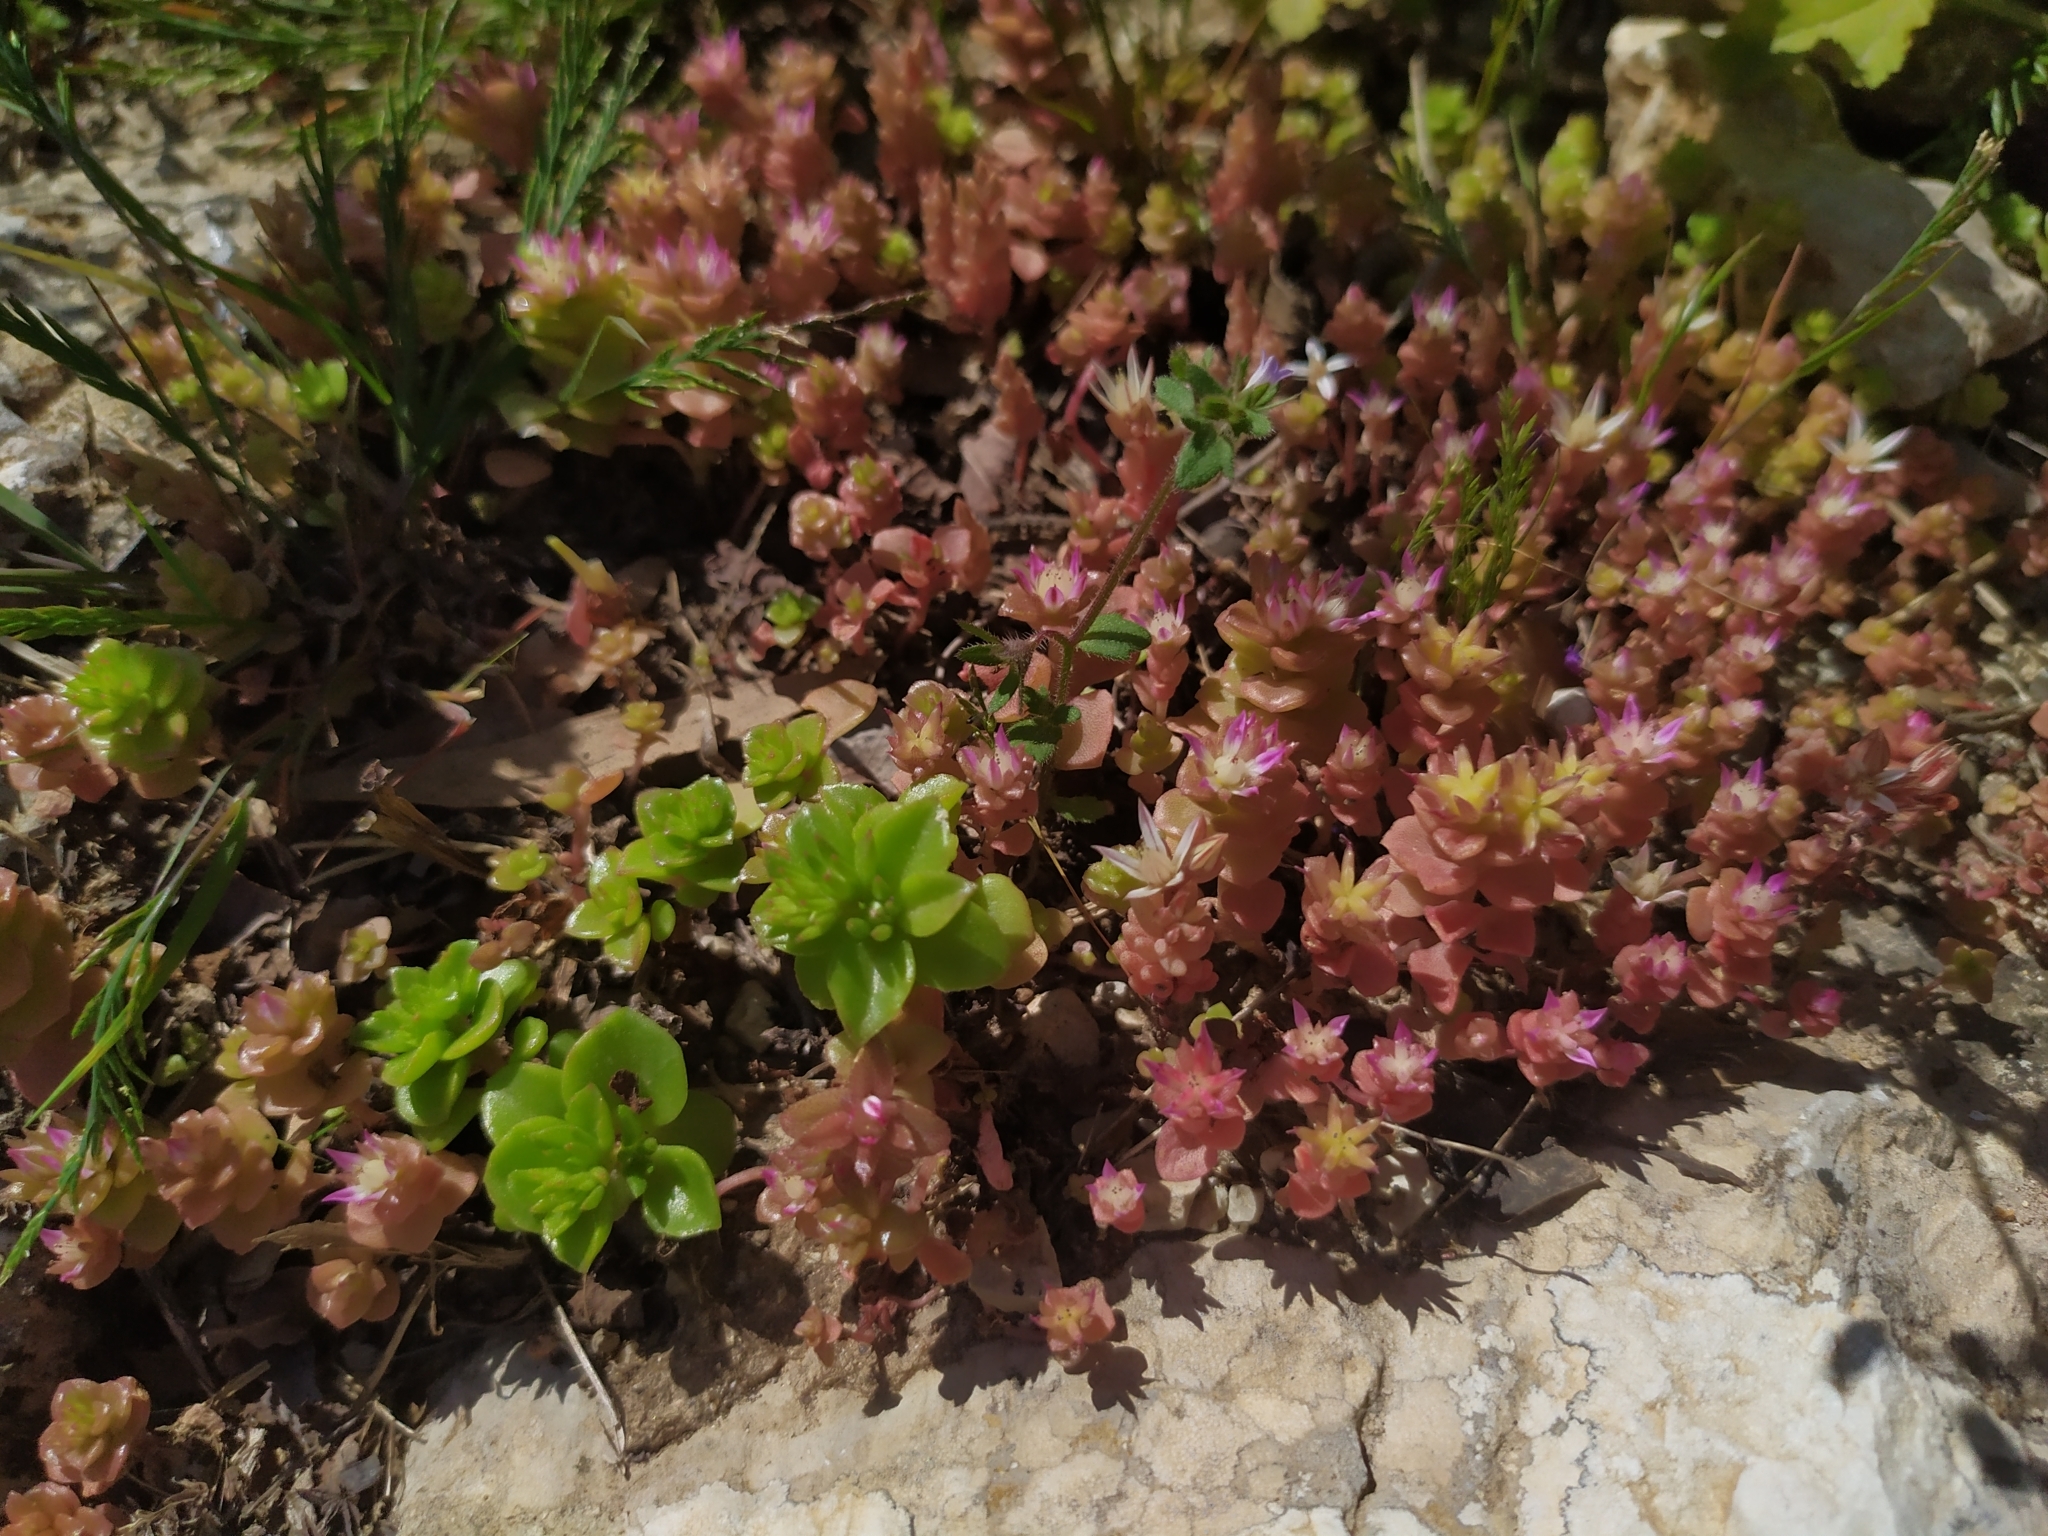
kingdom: Plantae
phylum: Tracheophyta
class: Magnoliopsida
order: Saxifragales
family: Crassulaceae
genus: Phedimus
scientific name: Phedimus stellatus
